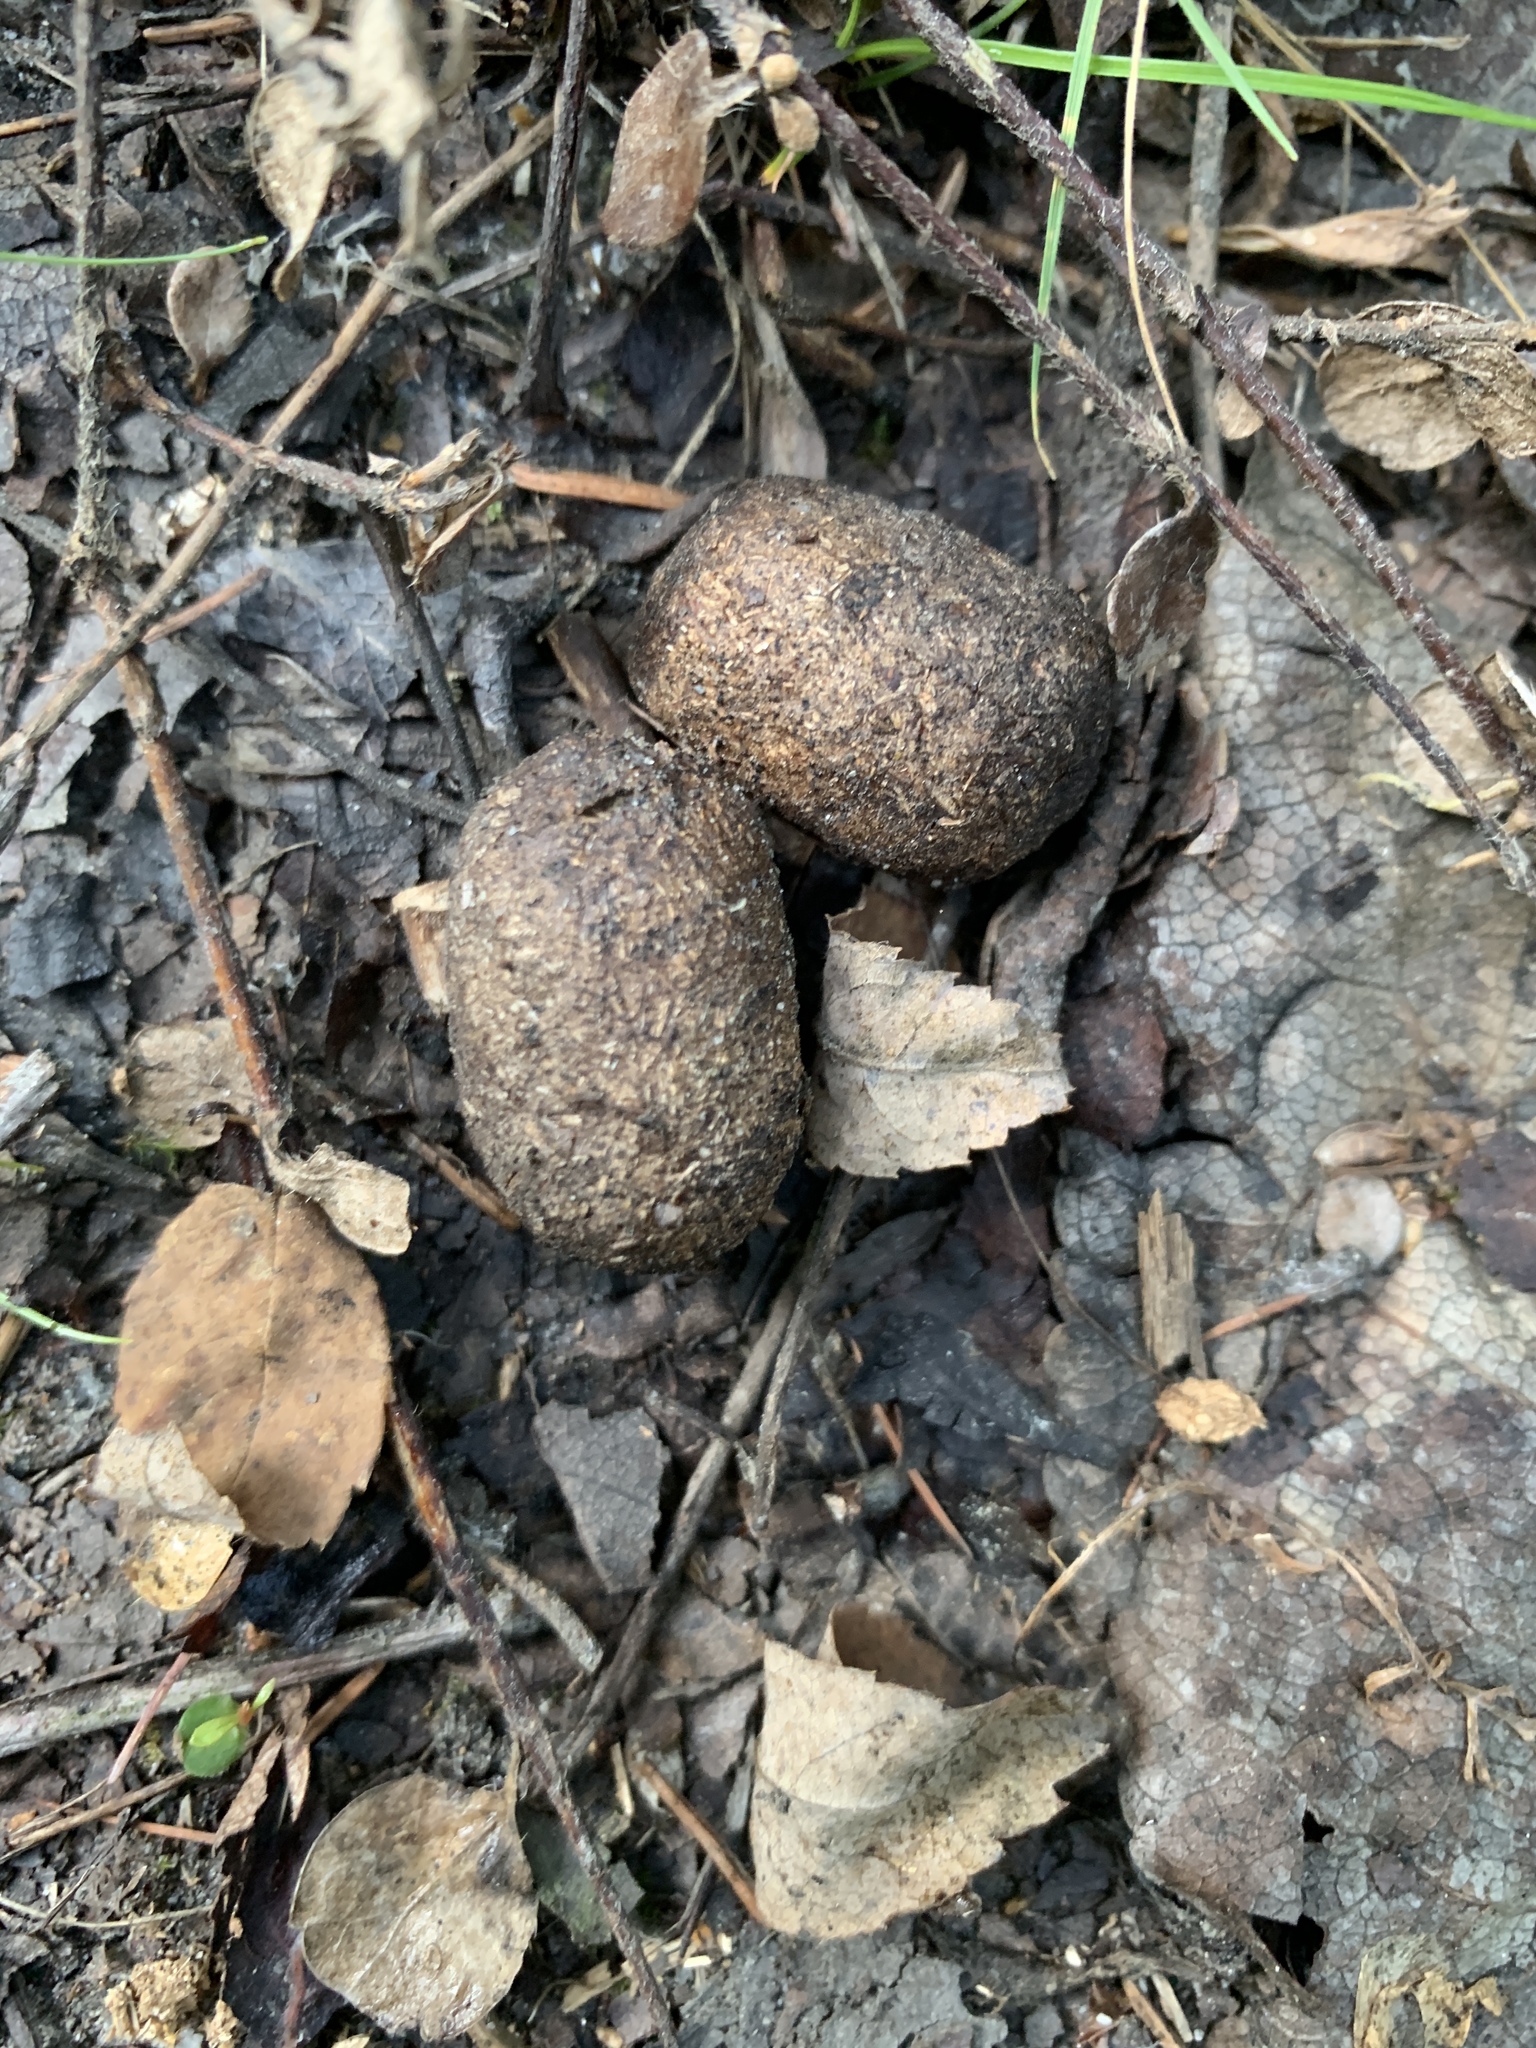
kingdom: Animalia
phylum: Chordata
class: Mammalia
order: Artiodactyla
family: Cervidae
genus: Alces
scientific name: Alces alces
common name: Moose
